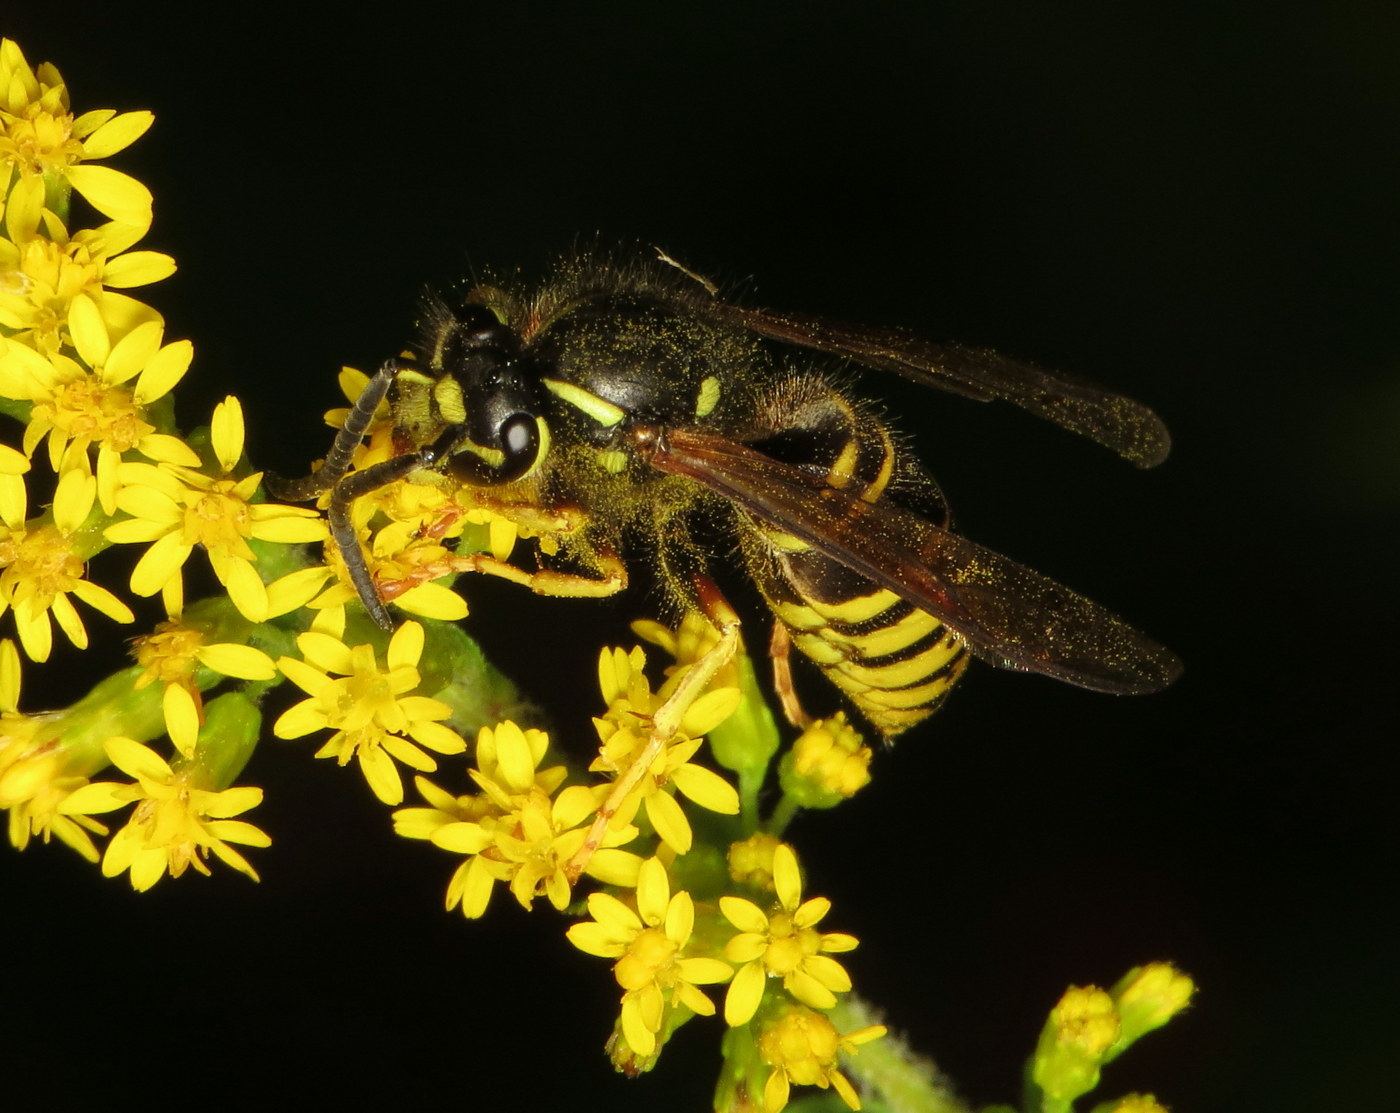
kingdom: Animalia
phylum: Arthropoda
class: Insecta
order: Hymenoptera
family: Vespidae
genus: Vespula
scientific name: Vespula vidua
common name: Widow yellowjacket
